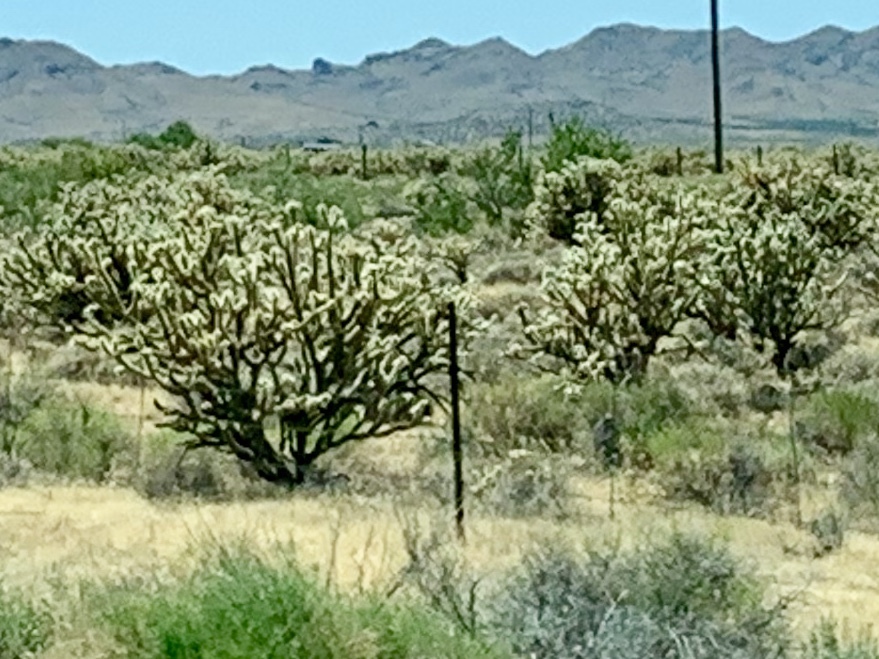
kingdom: Plantae
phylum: Tracheophyta
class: Magnoliopsida
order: Caryophyllales
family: Cactaceae
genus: Cylindropuntia
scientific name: Cylindropuntia acanthocarpa
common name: Buckhorn cholla
